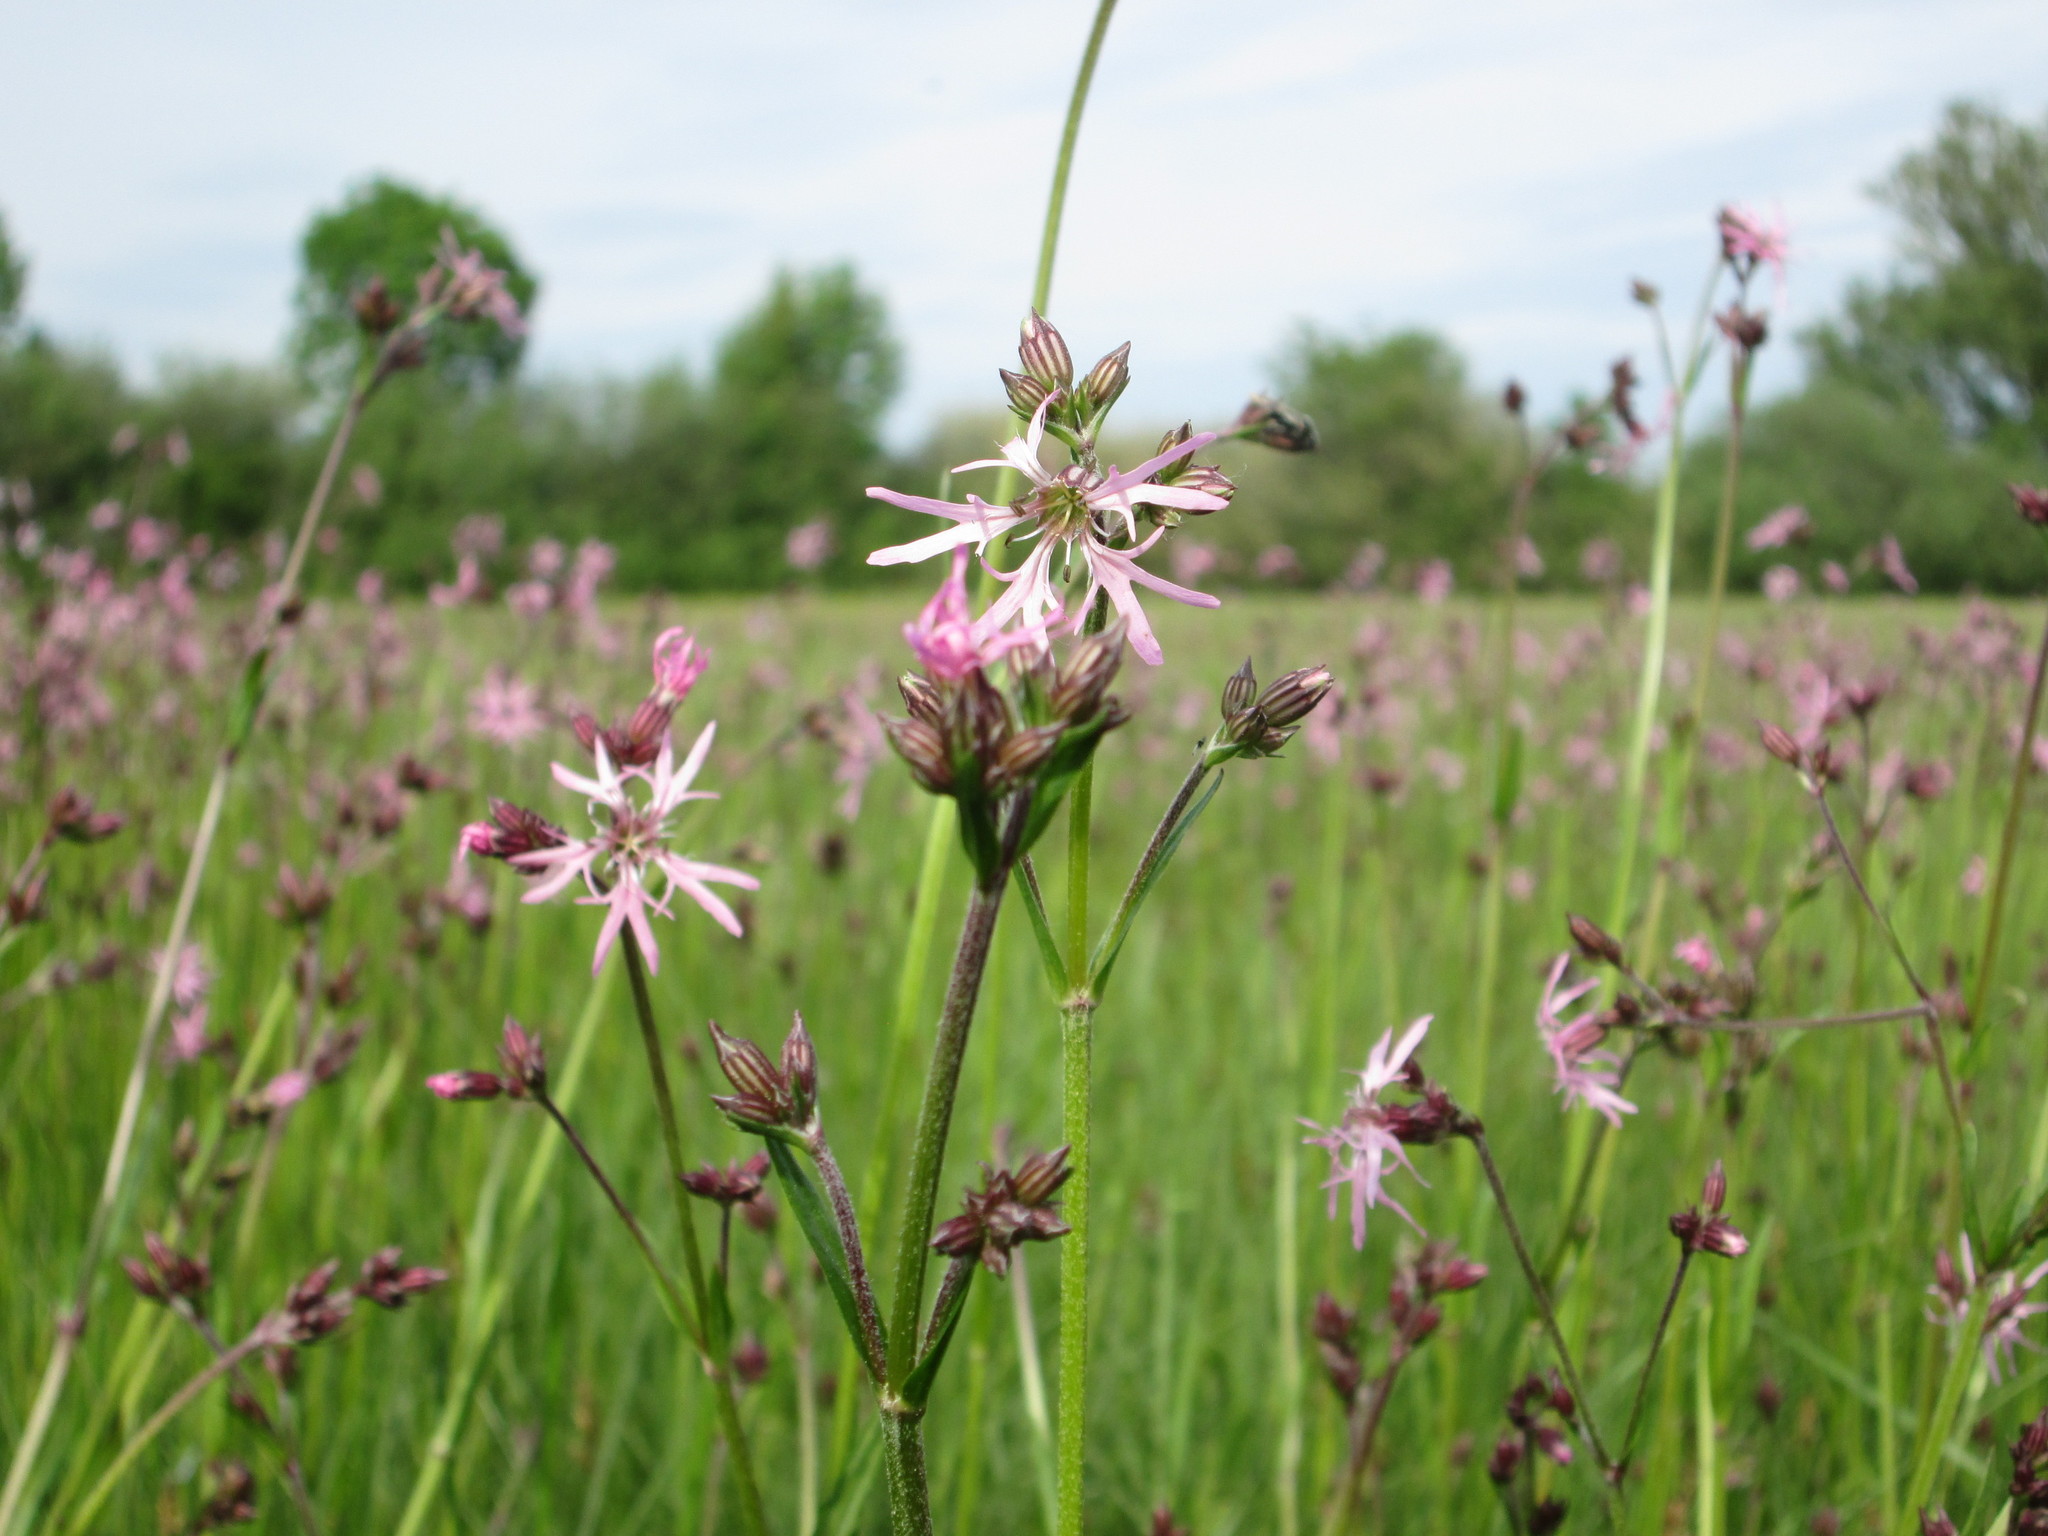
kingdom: Plantae
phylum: Tracheophyta
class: Magnoliopsida
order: Caryophyllales
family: Caryophyllaceae
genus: Silene
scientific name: Silene flos-cuculi
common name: Ragged-robin
